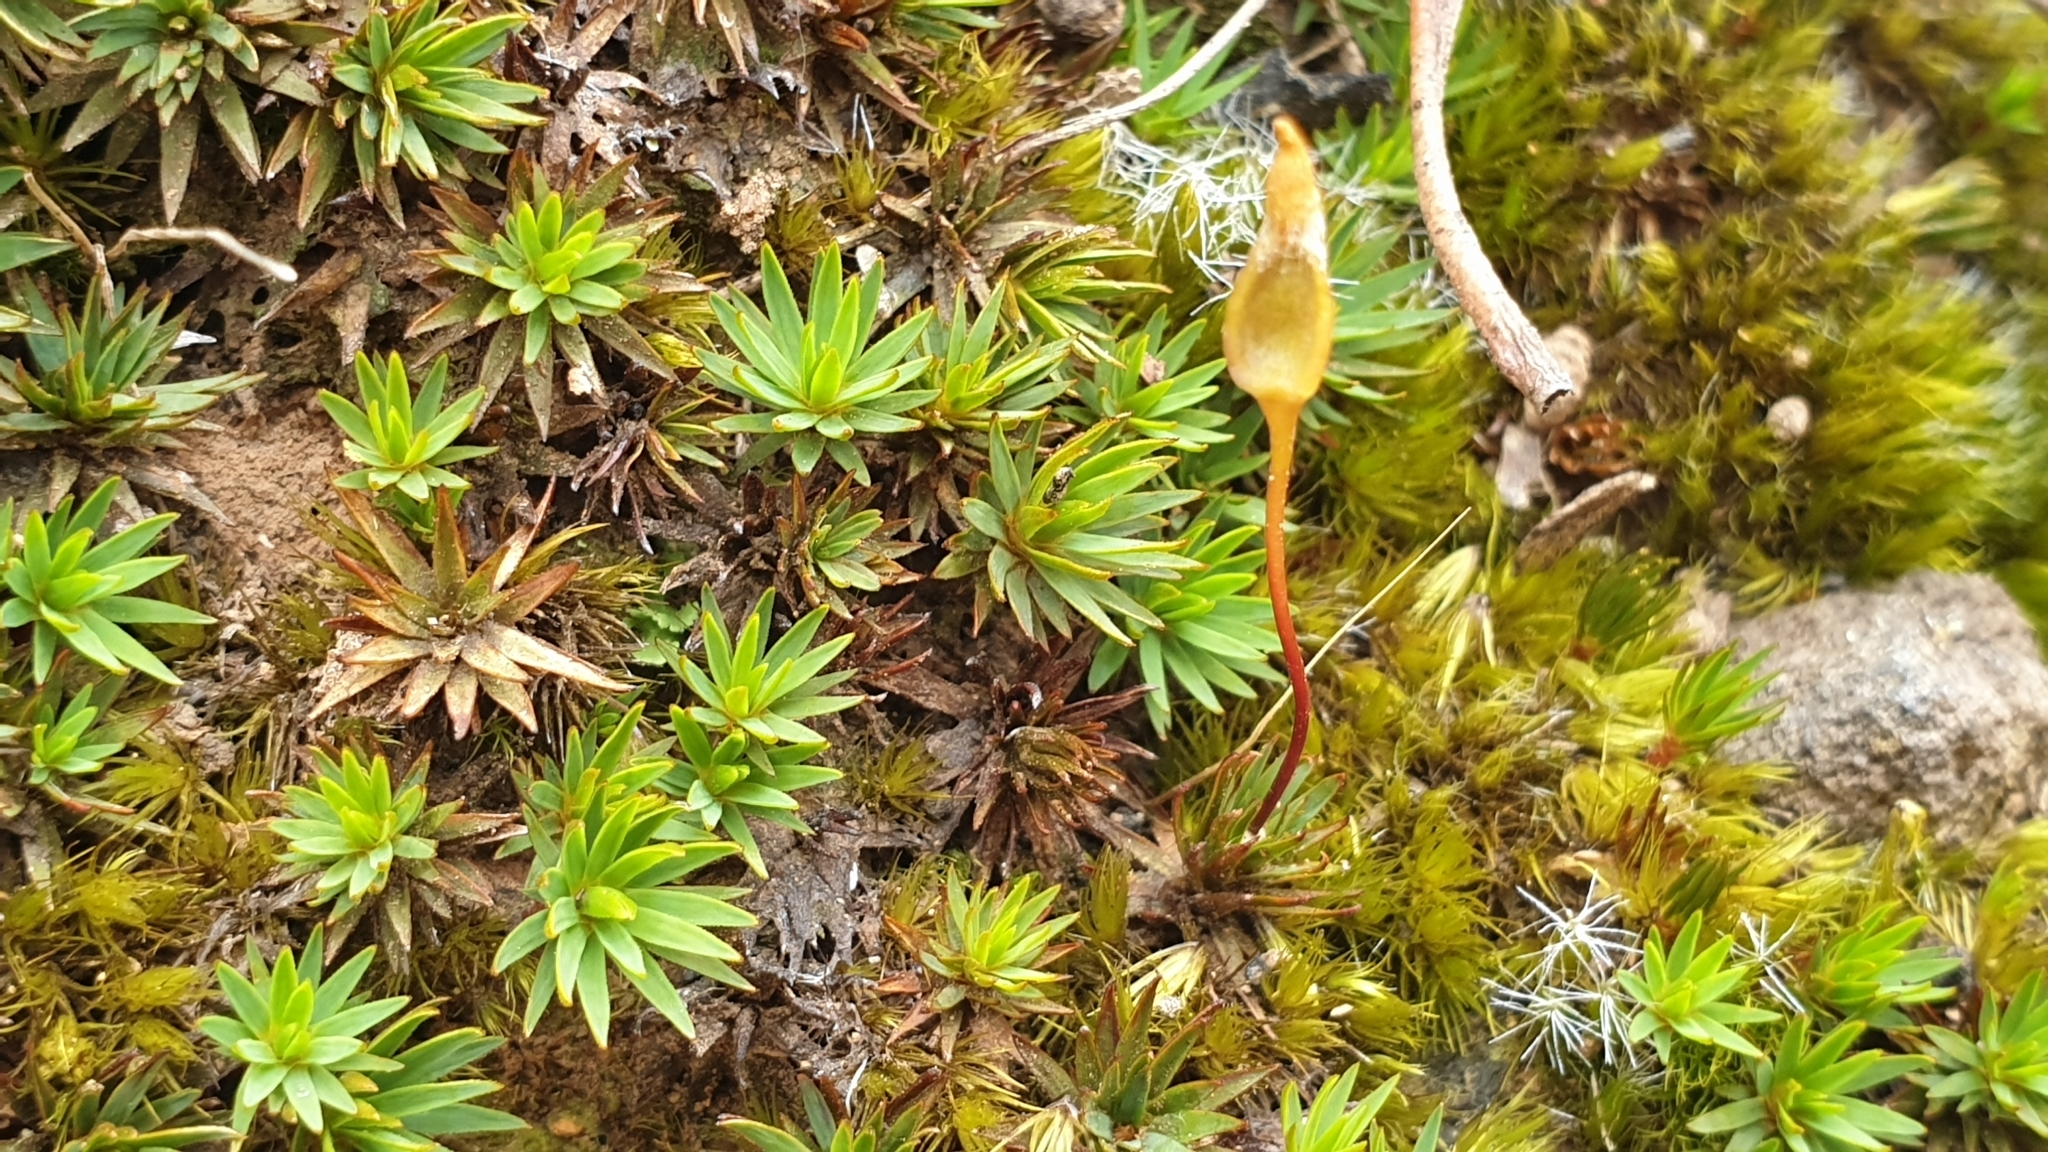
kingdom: Plantae
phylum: Bryophyta
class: Polytrichopsida
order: Polytrichales
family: Polytrichaceae
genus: Dawsonia
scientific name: Dawsonia longiseta
